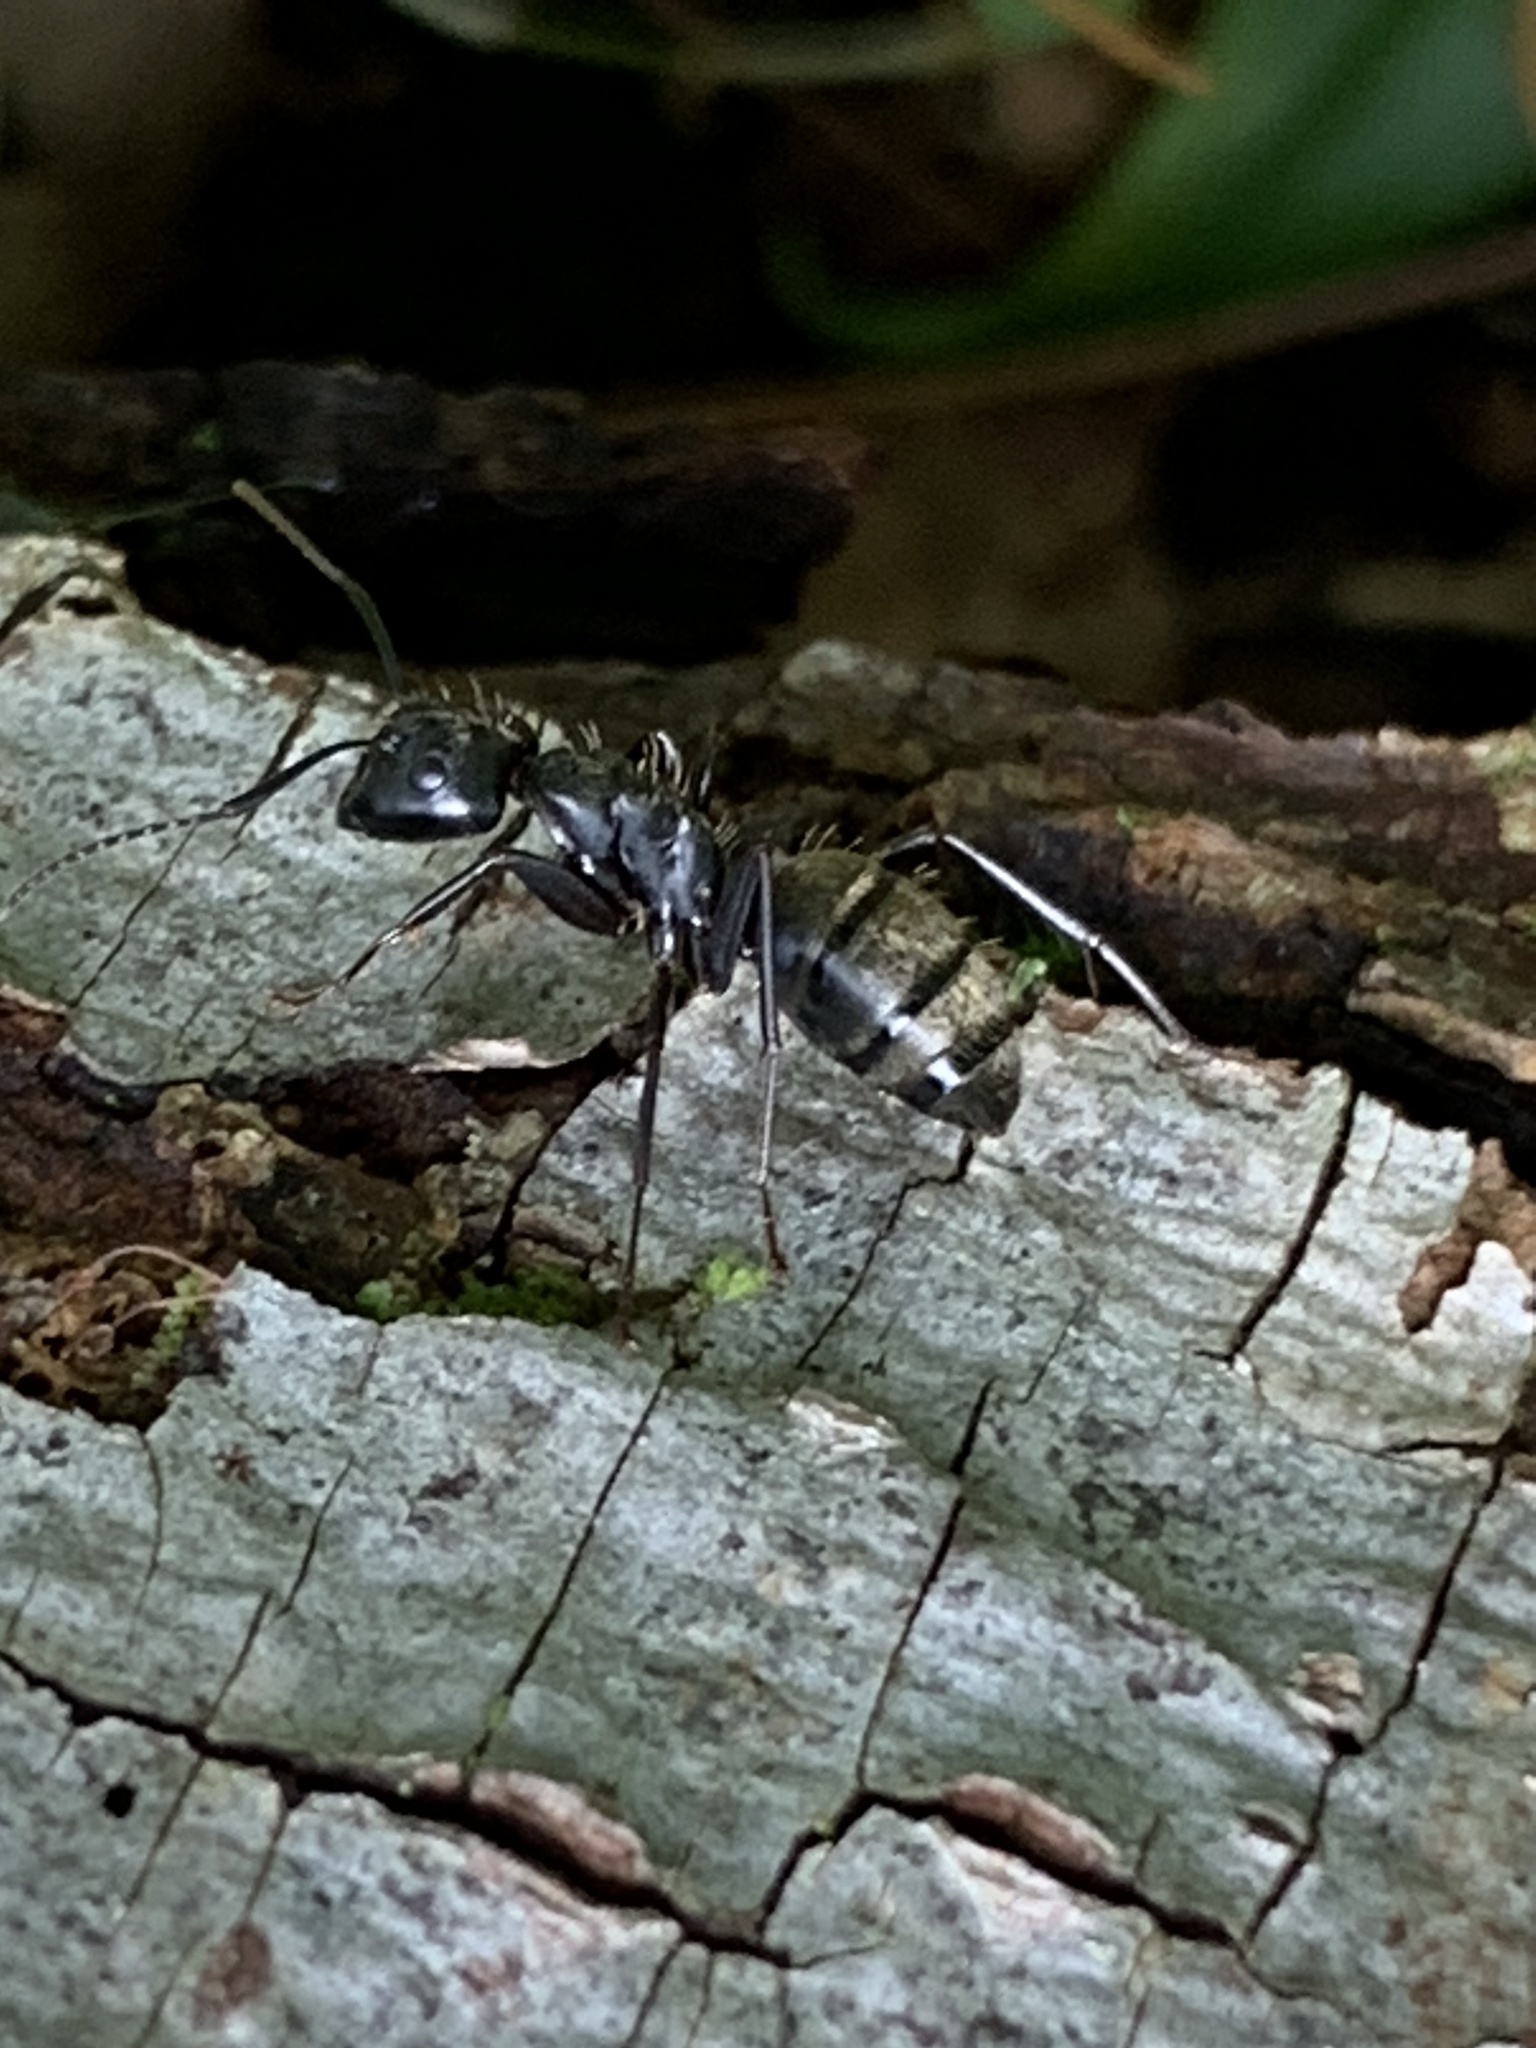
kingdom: Animalia
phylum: Arthropoda
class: Insecta
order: Hymenoptera
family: Formicidae
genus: Camponotus
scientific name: Camponotus pennsylvanicus
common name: Black carpenter ant
